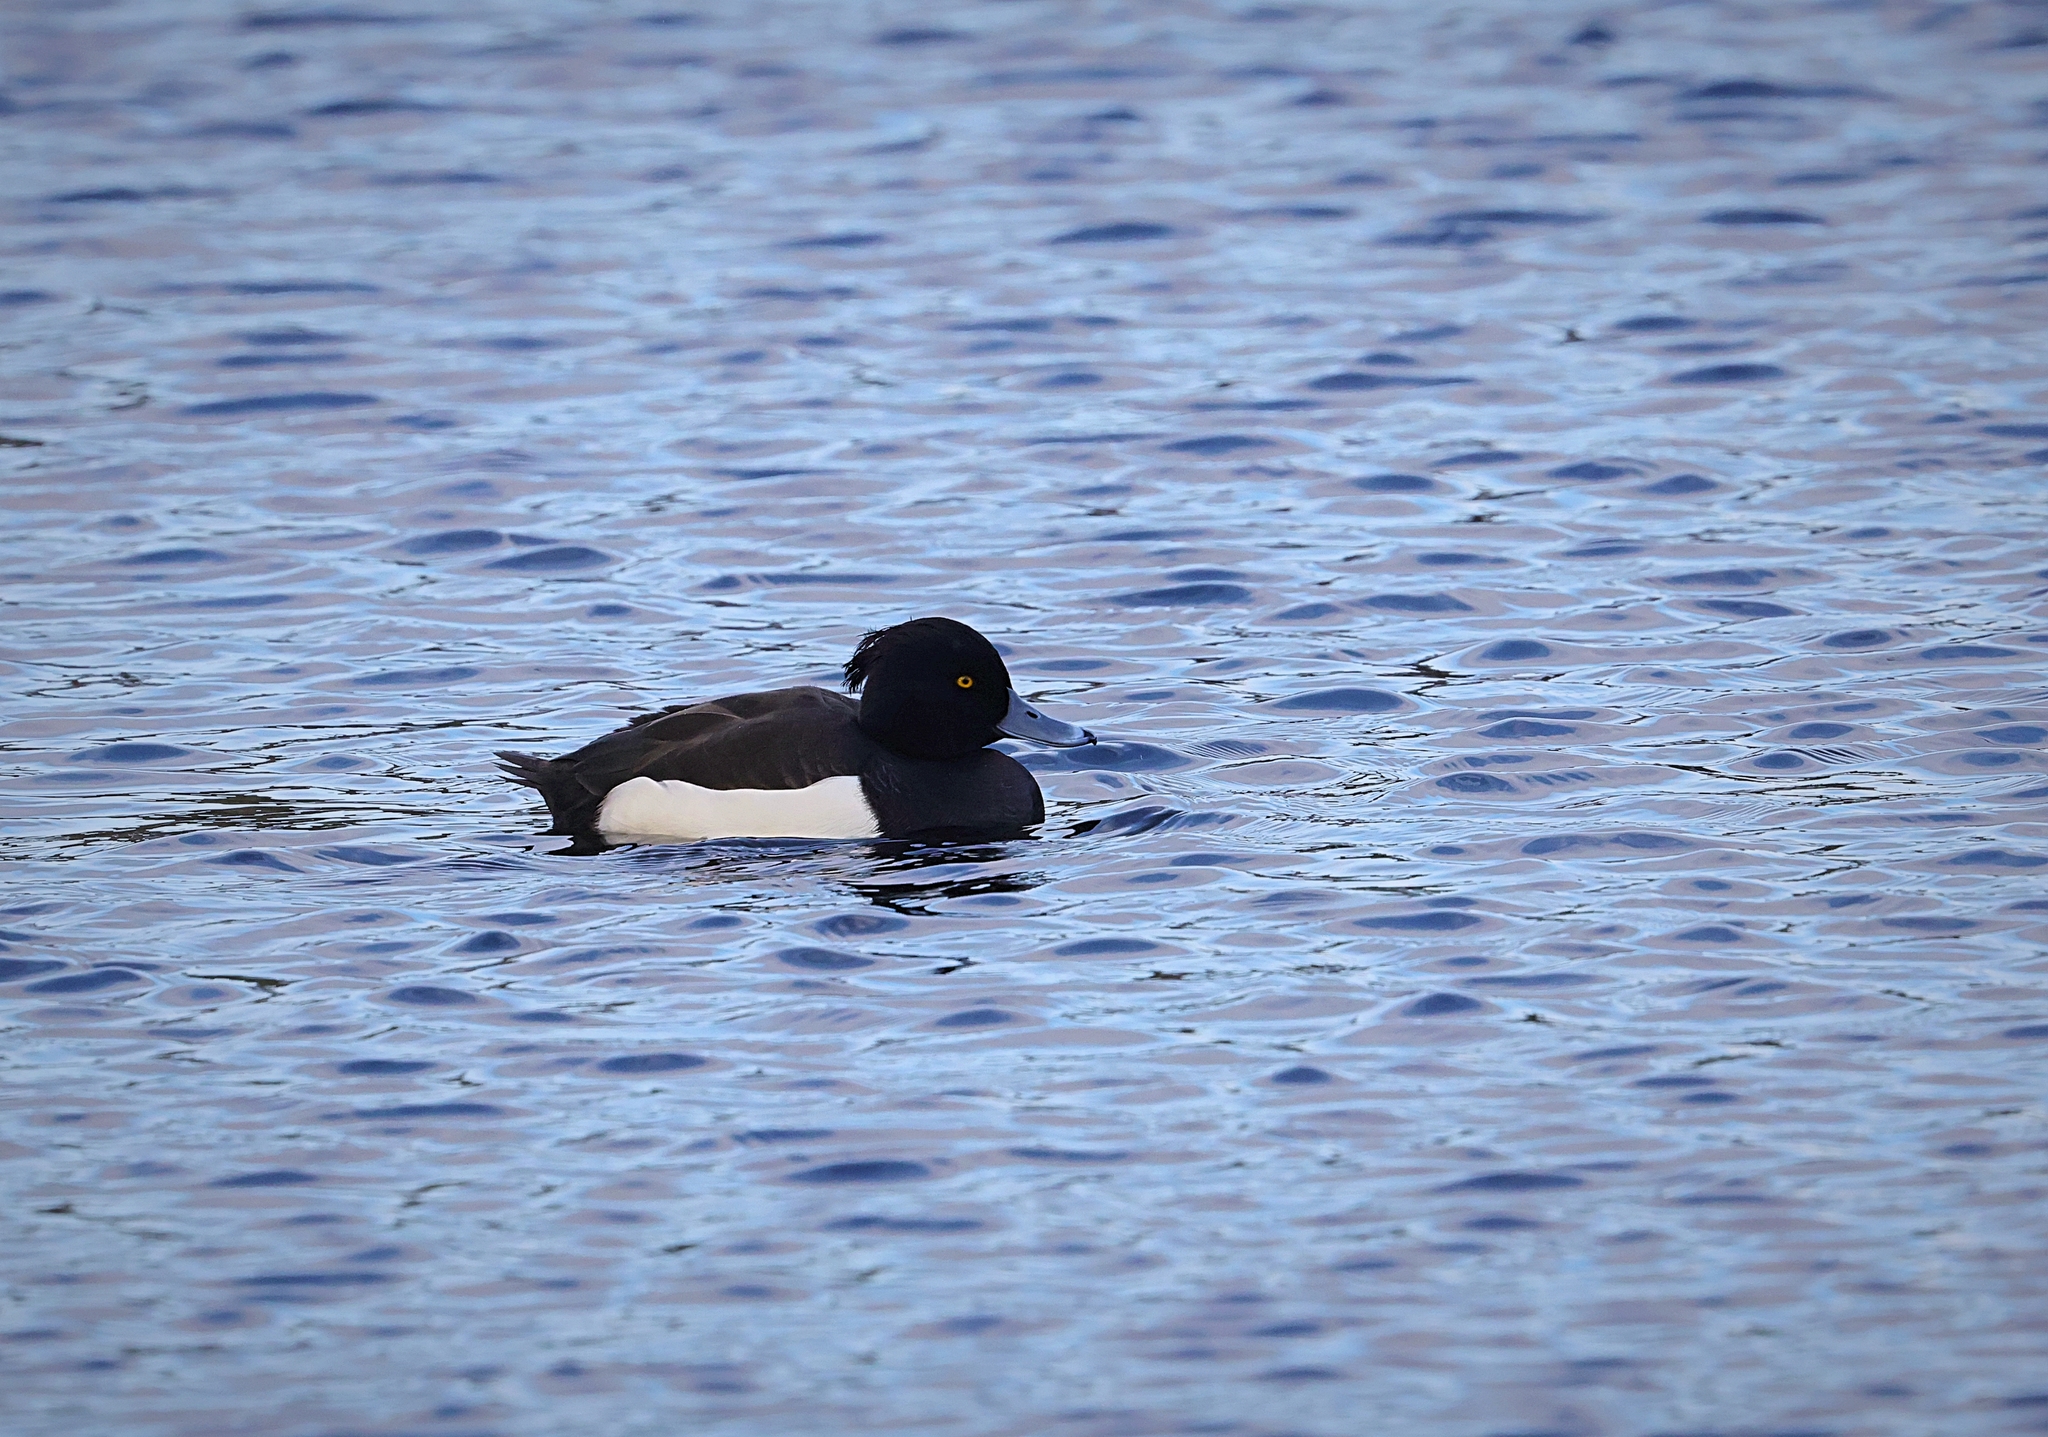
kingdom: Animalia
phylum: Chordata
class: Aves
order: Anseriformes
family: Anatidae
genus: Aythya
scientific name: Aythya fuligula
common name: Tufted duck
